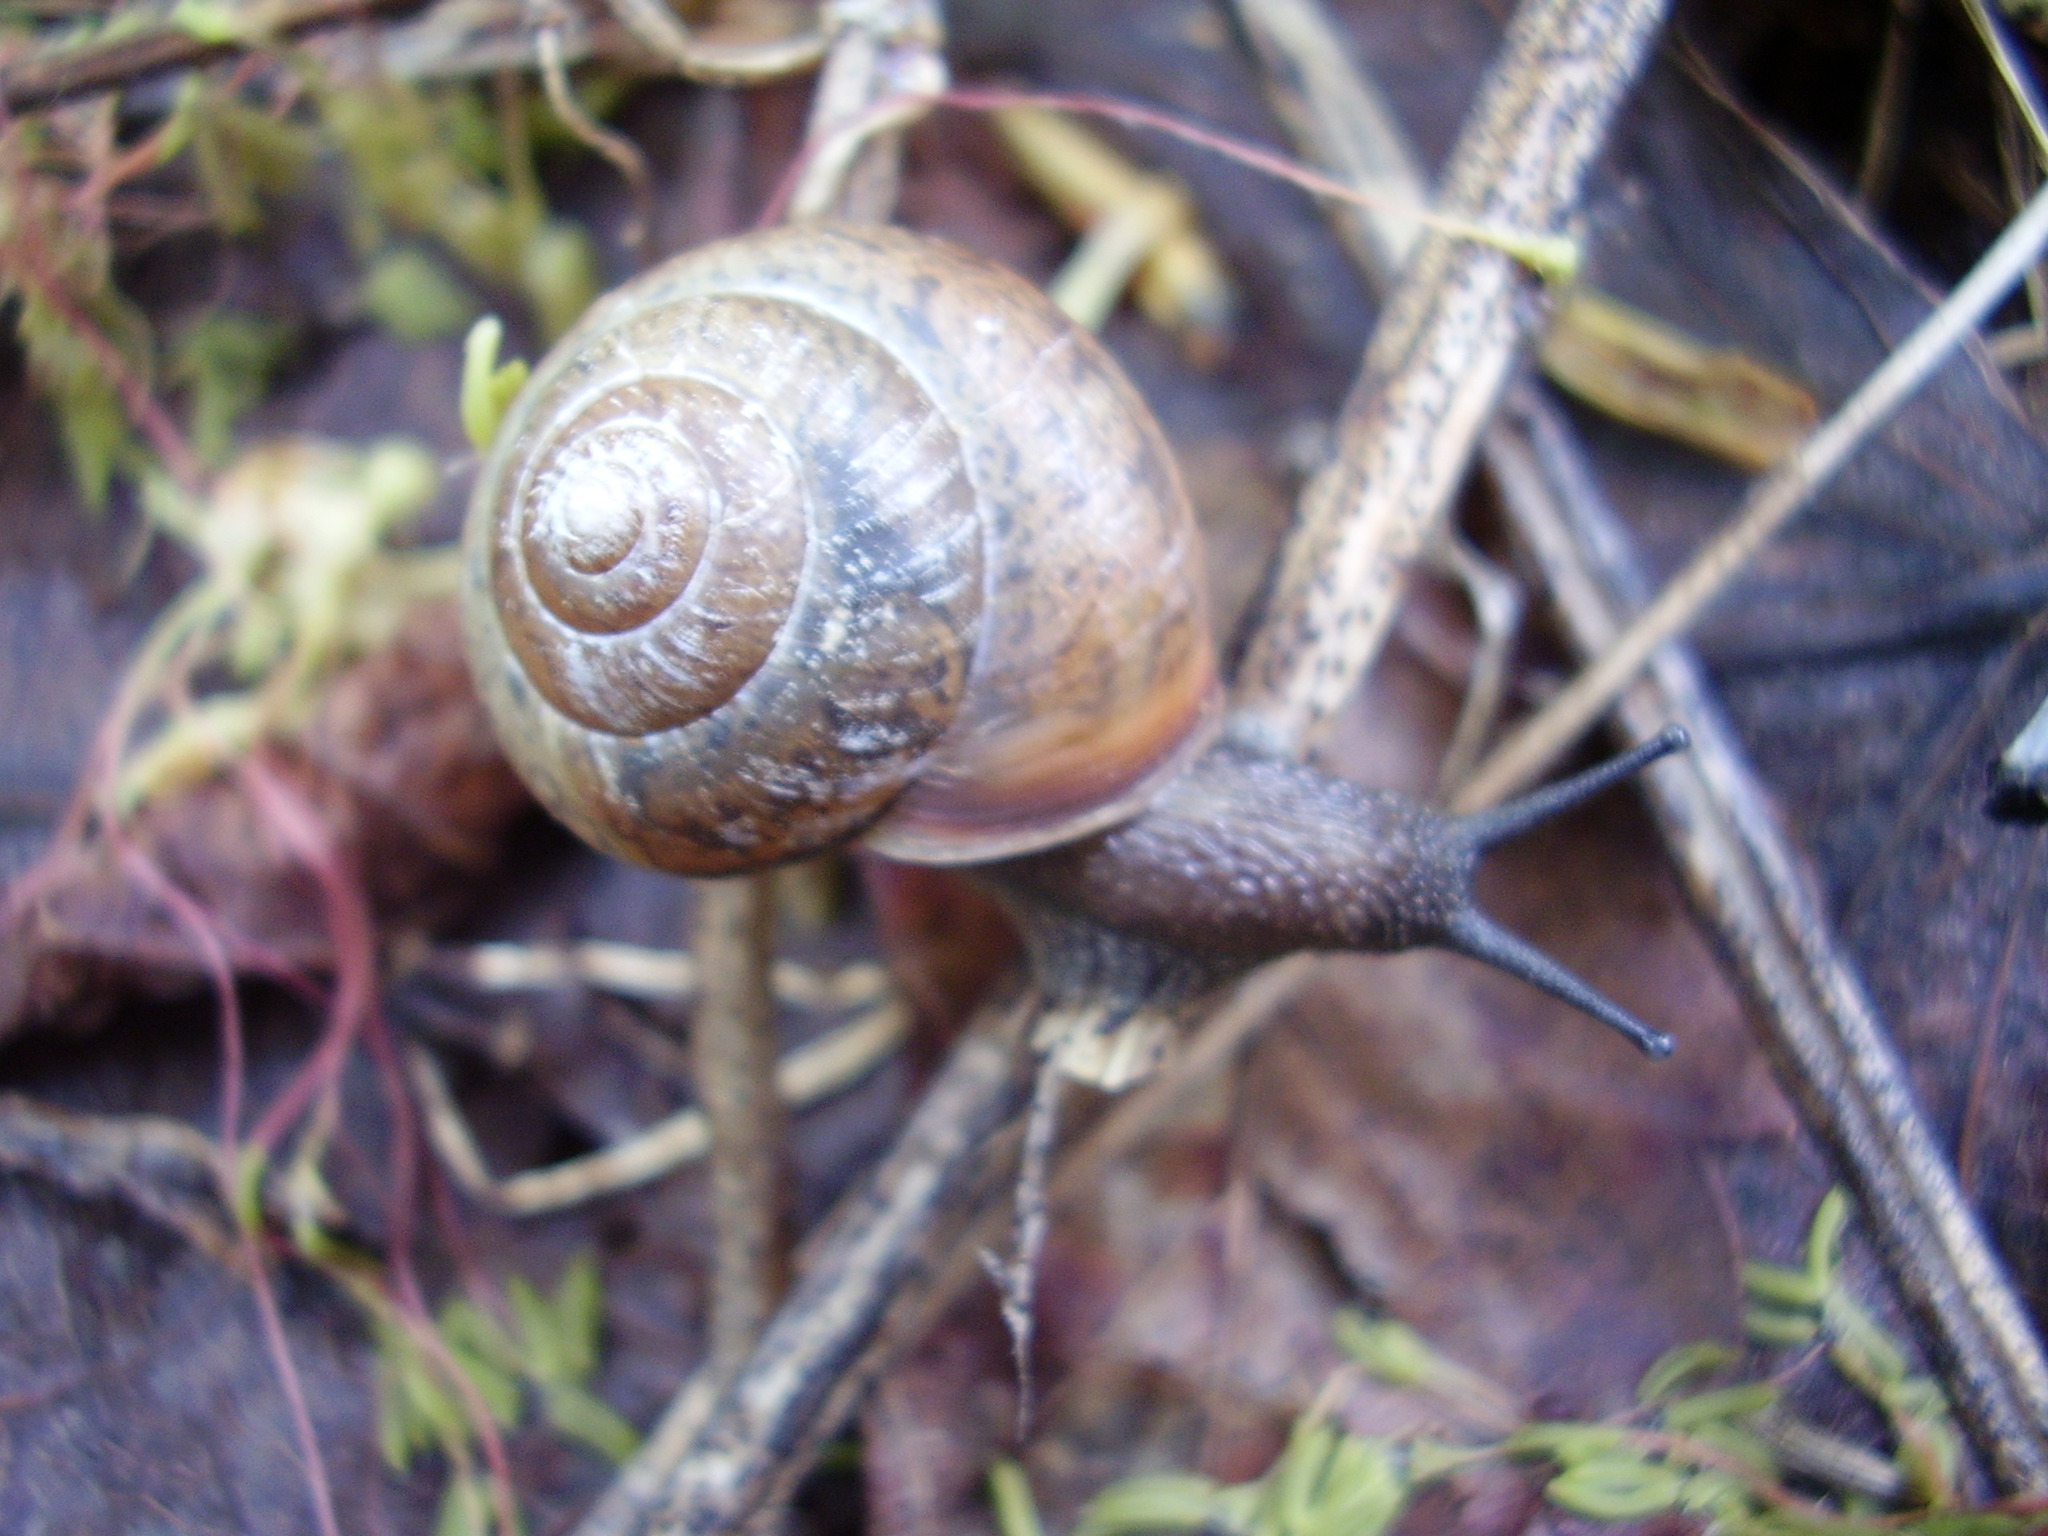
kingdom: Animalia
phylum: Mollusca
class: Gastropoda
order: Stylommatophora
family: Camaenidae
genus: Fruticicola
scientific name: Fruticicola fruticum
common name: Bush snail
